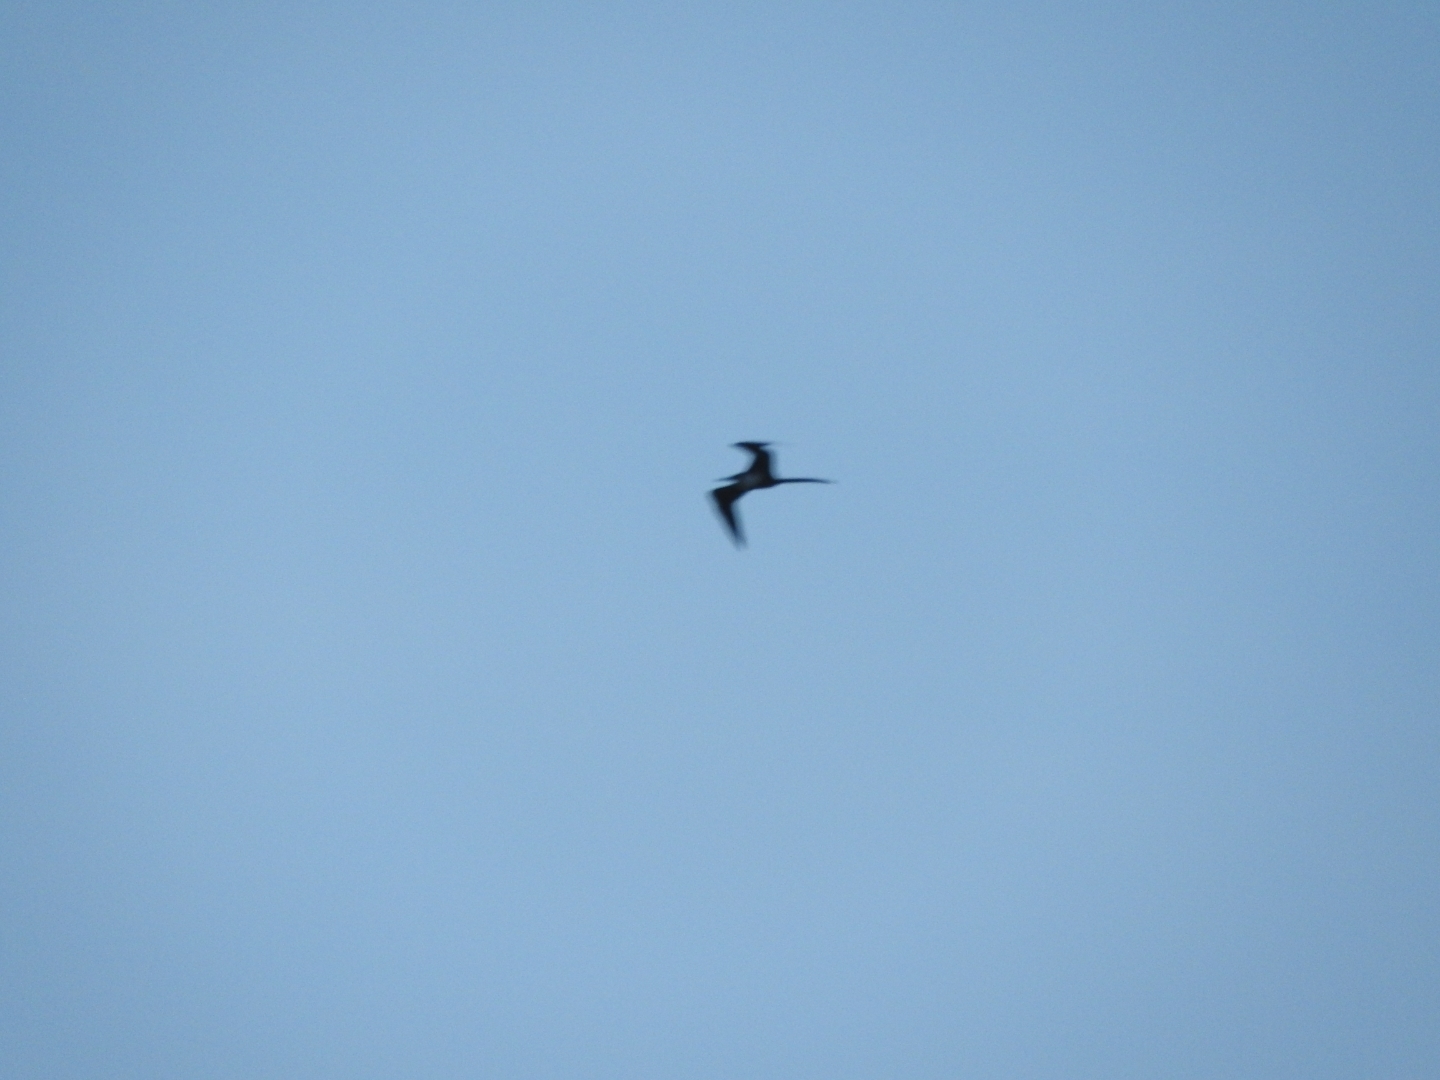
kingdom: Animalia
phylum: Chordata
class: Aves
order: Suliformes
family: Fregatidae
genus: Fregata
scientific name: Fregata magnificens
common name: Magnificent frigatebird
